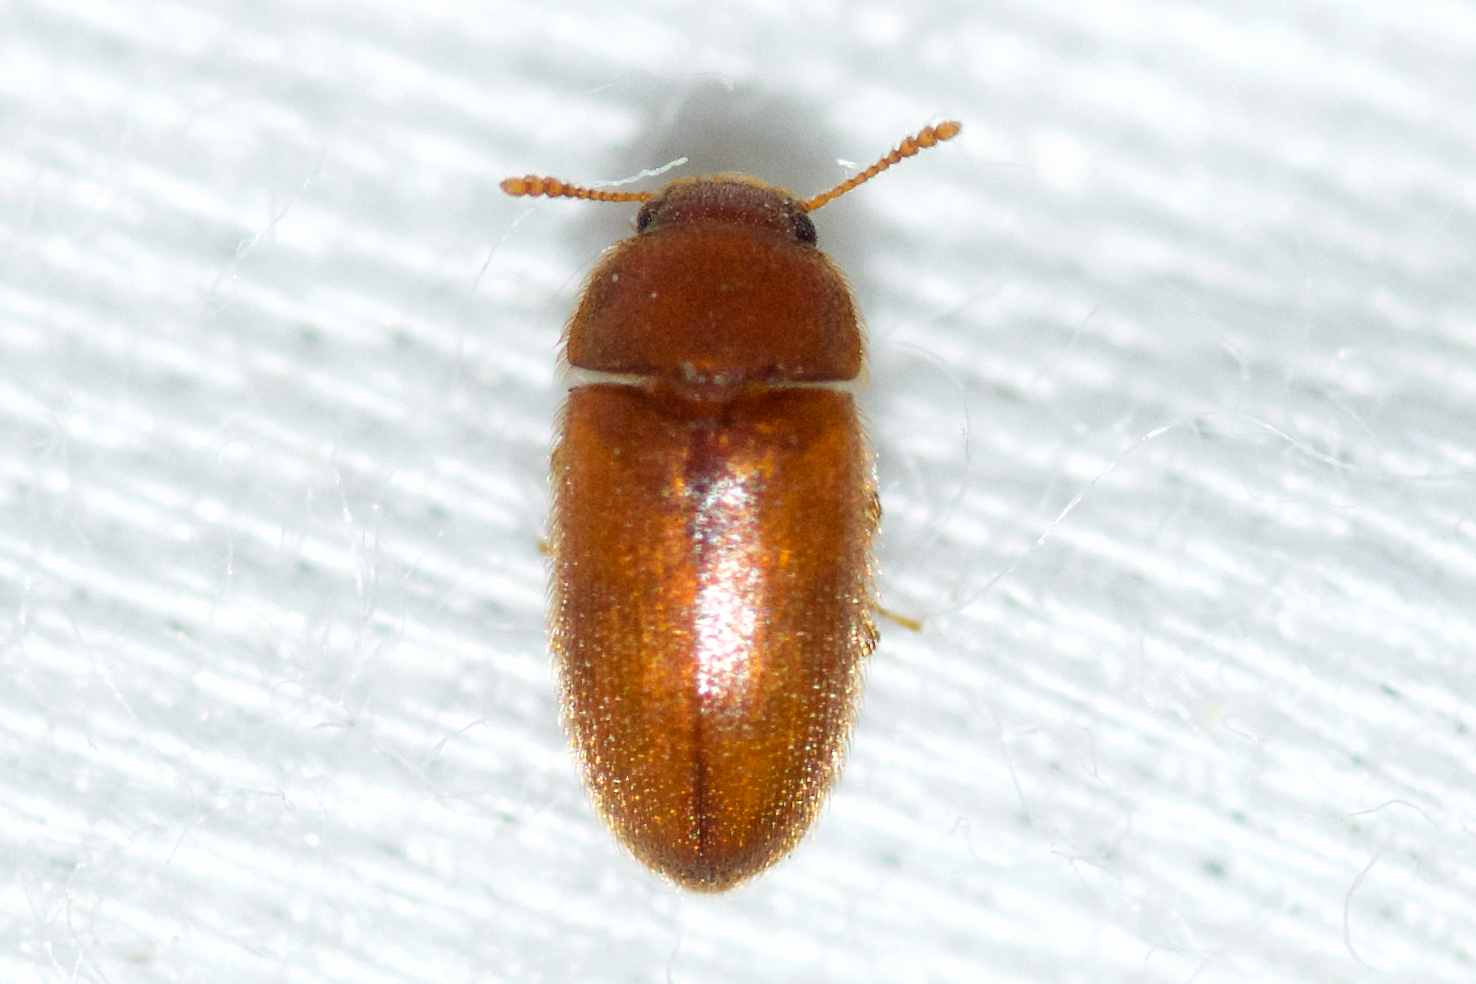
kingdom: Animalia
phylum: Arthropoda
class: Insecta
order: Coleoptera
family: Mycetophagidae
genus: Typhaea
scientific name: Typhaea stercorea
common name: Hairy fungus beetle
